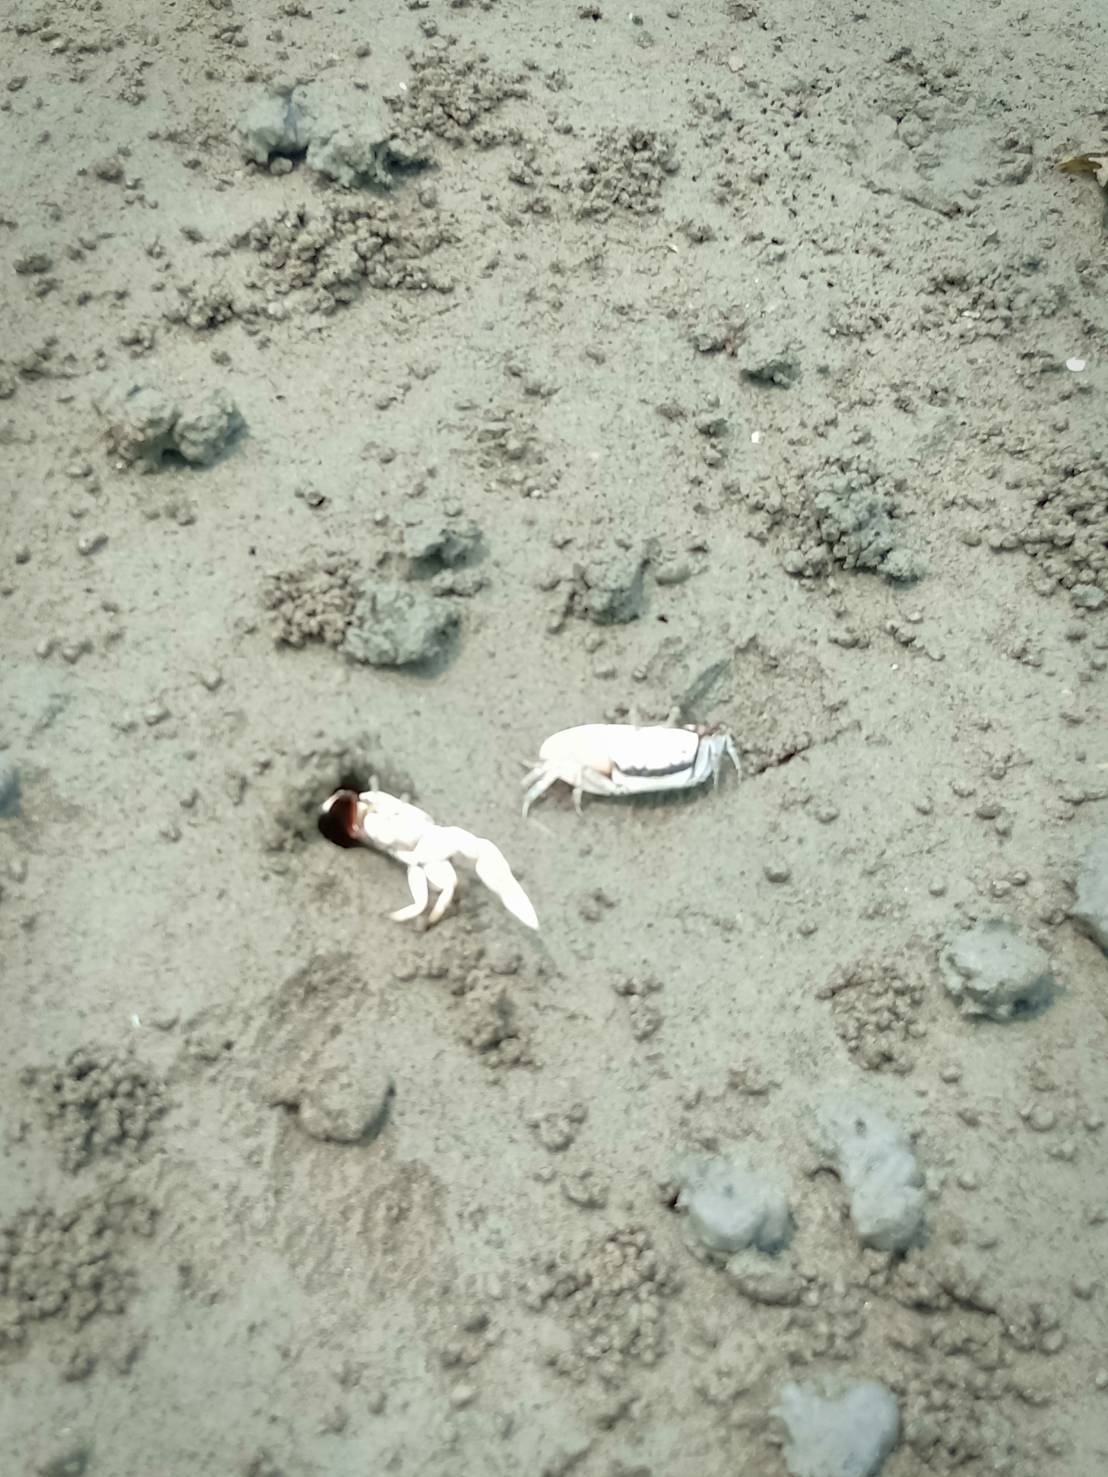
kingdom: Animalia
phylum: Arthropoda
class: Malacostraca
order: Decapoda
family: Ocypodidae
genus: Austruca
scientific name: Austruca lactea
